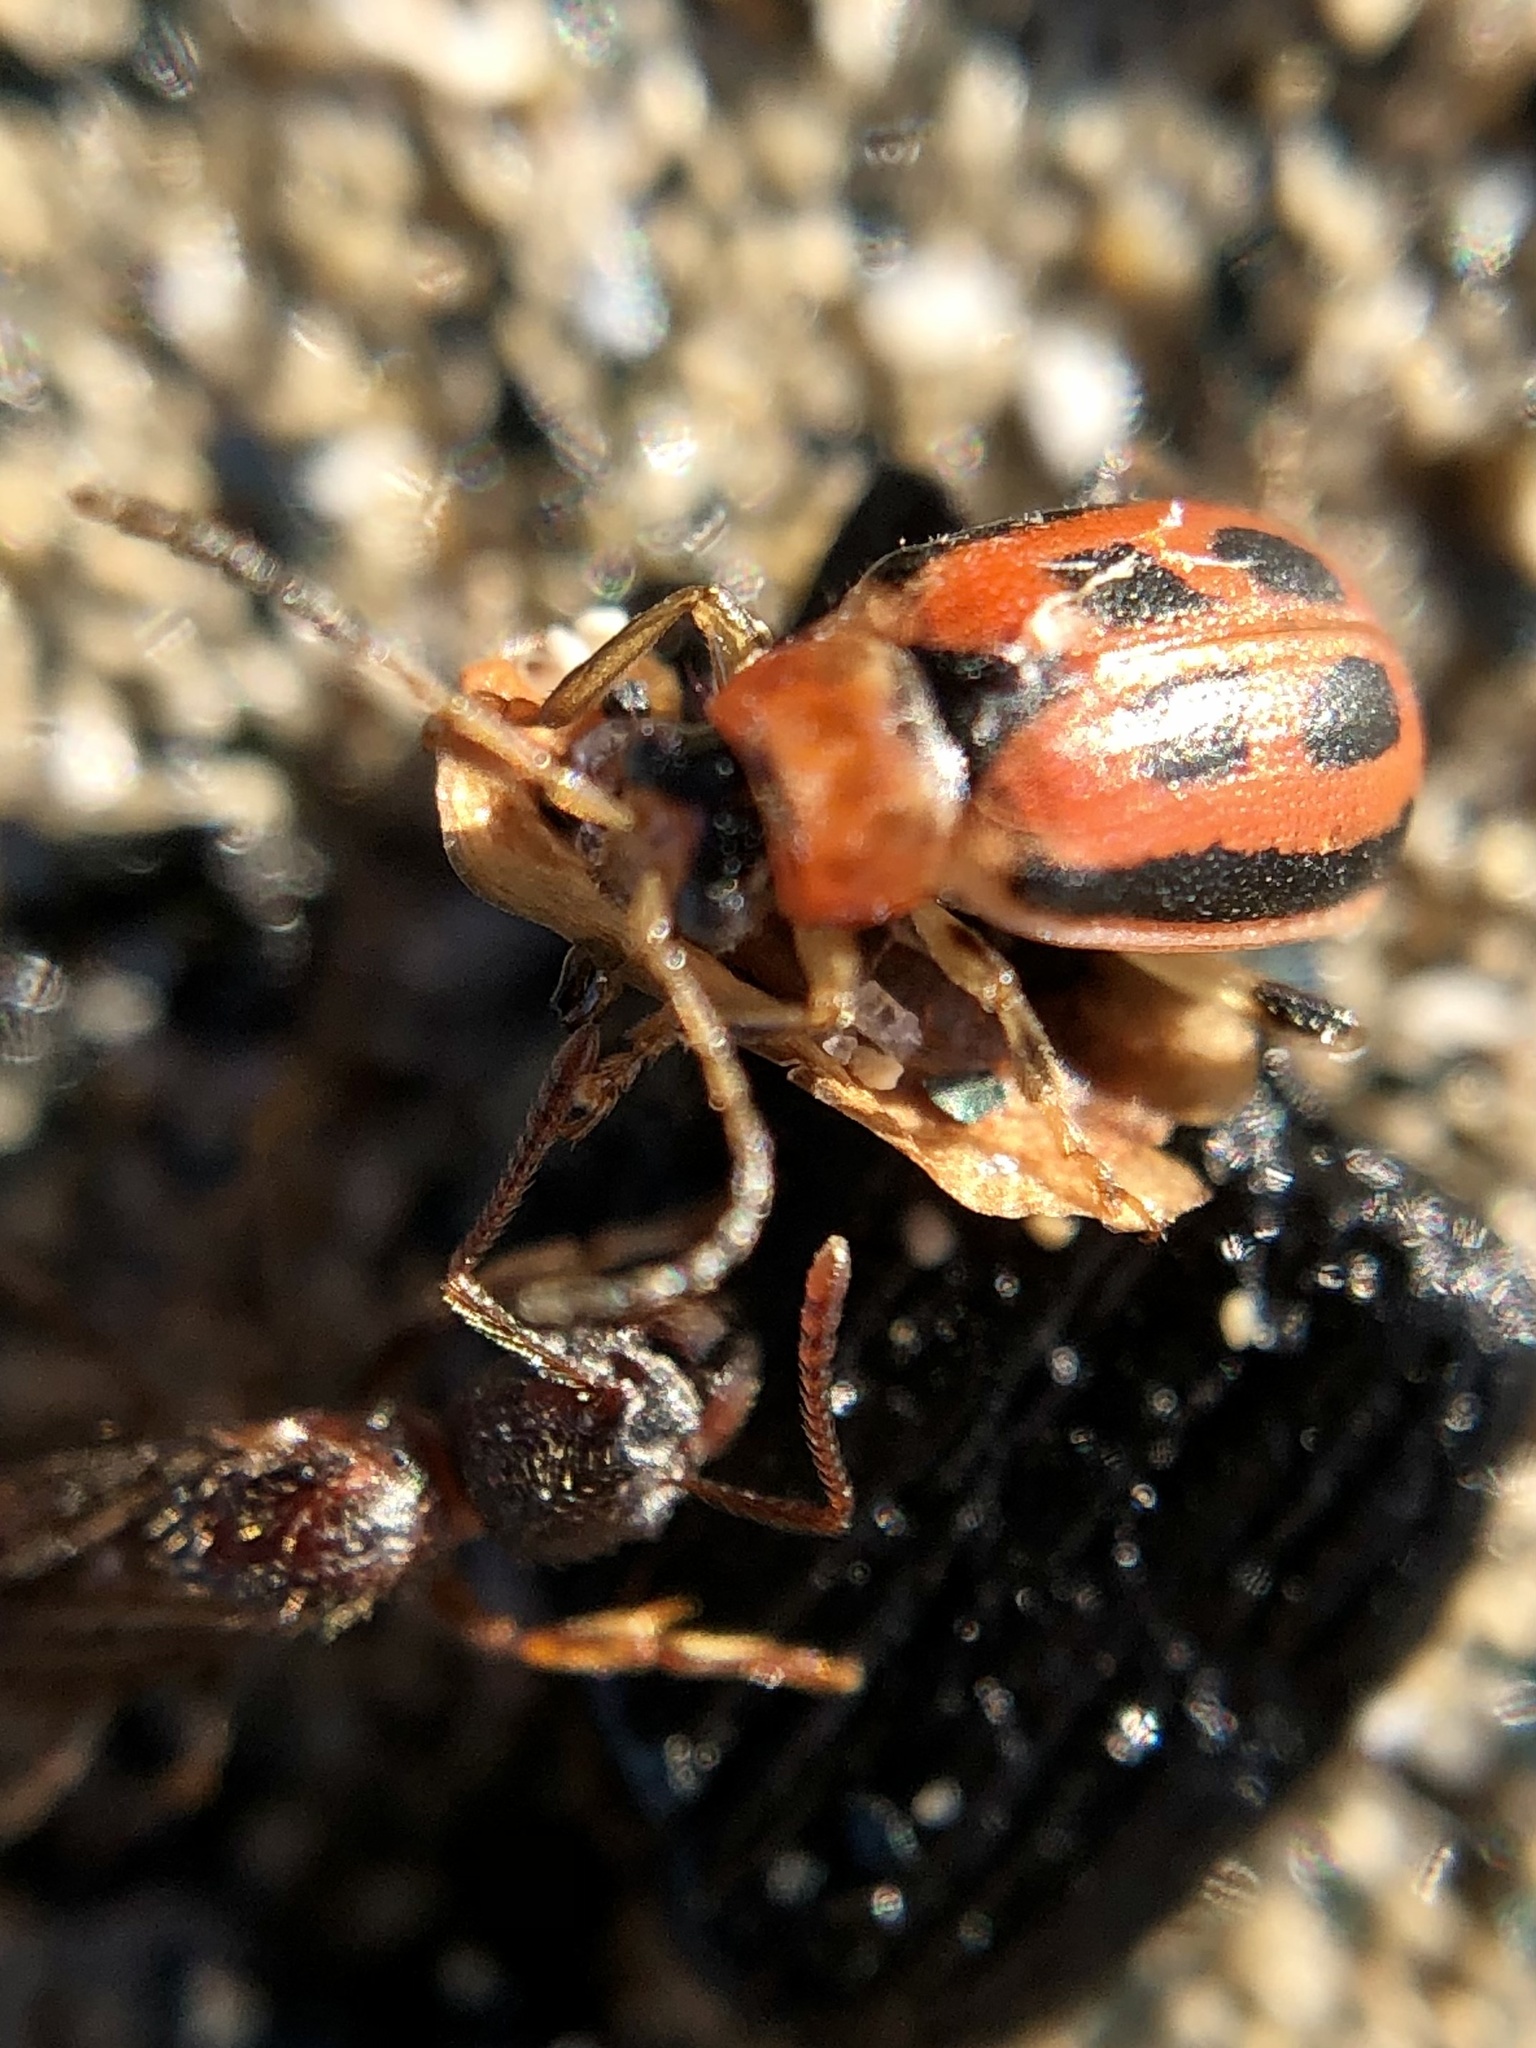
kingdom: Animalia
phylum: Arthropoda
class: Insecta
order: Coleoptera
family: Chrysomelidae
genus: Cerotoma
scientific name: Cerotoma trifurcata
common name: Bean leaf beetle
